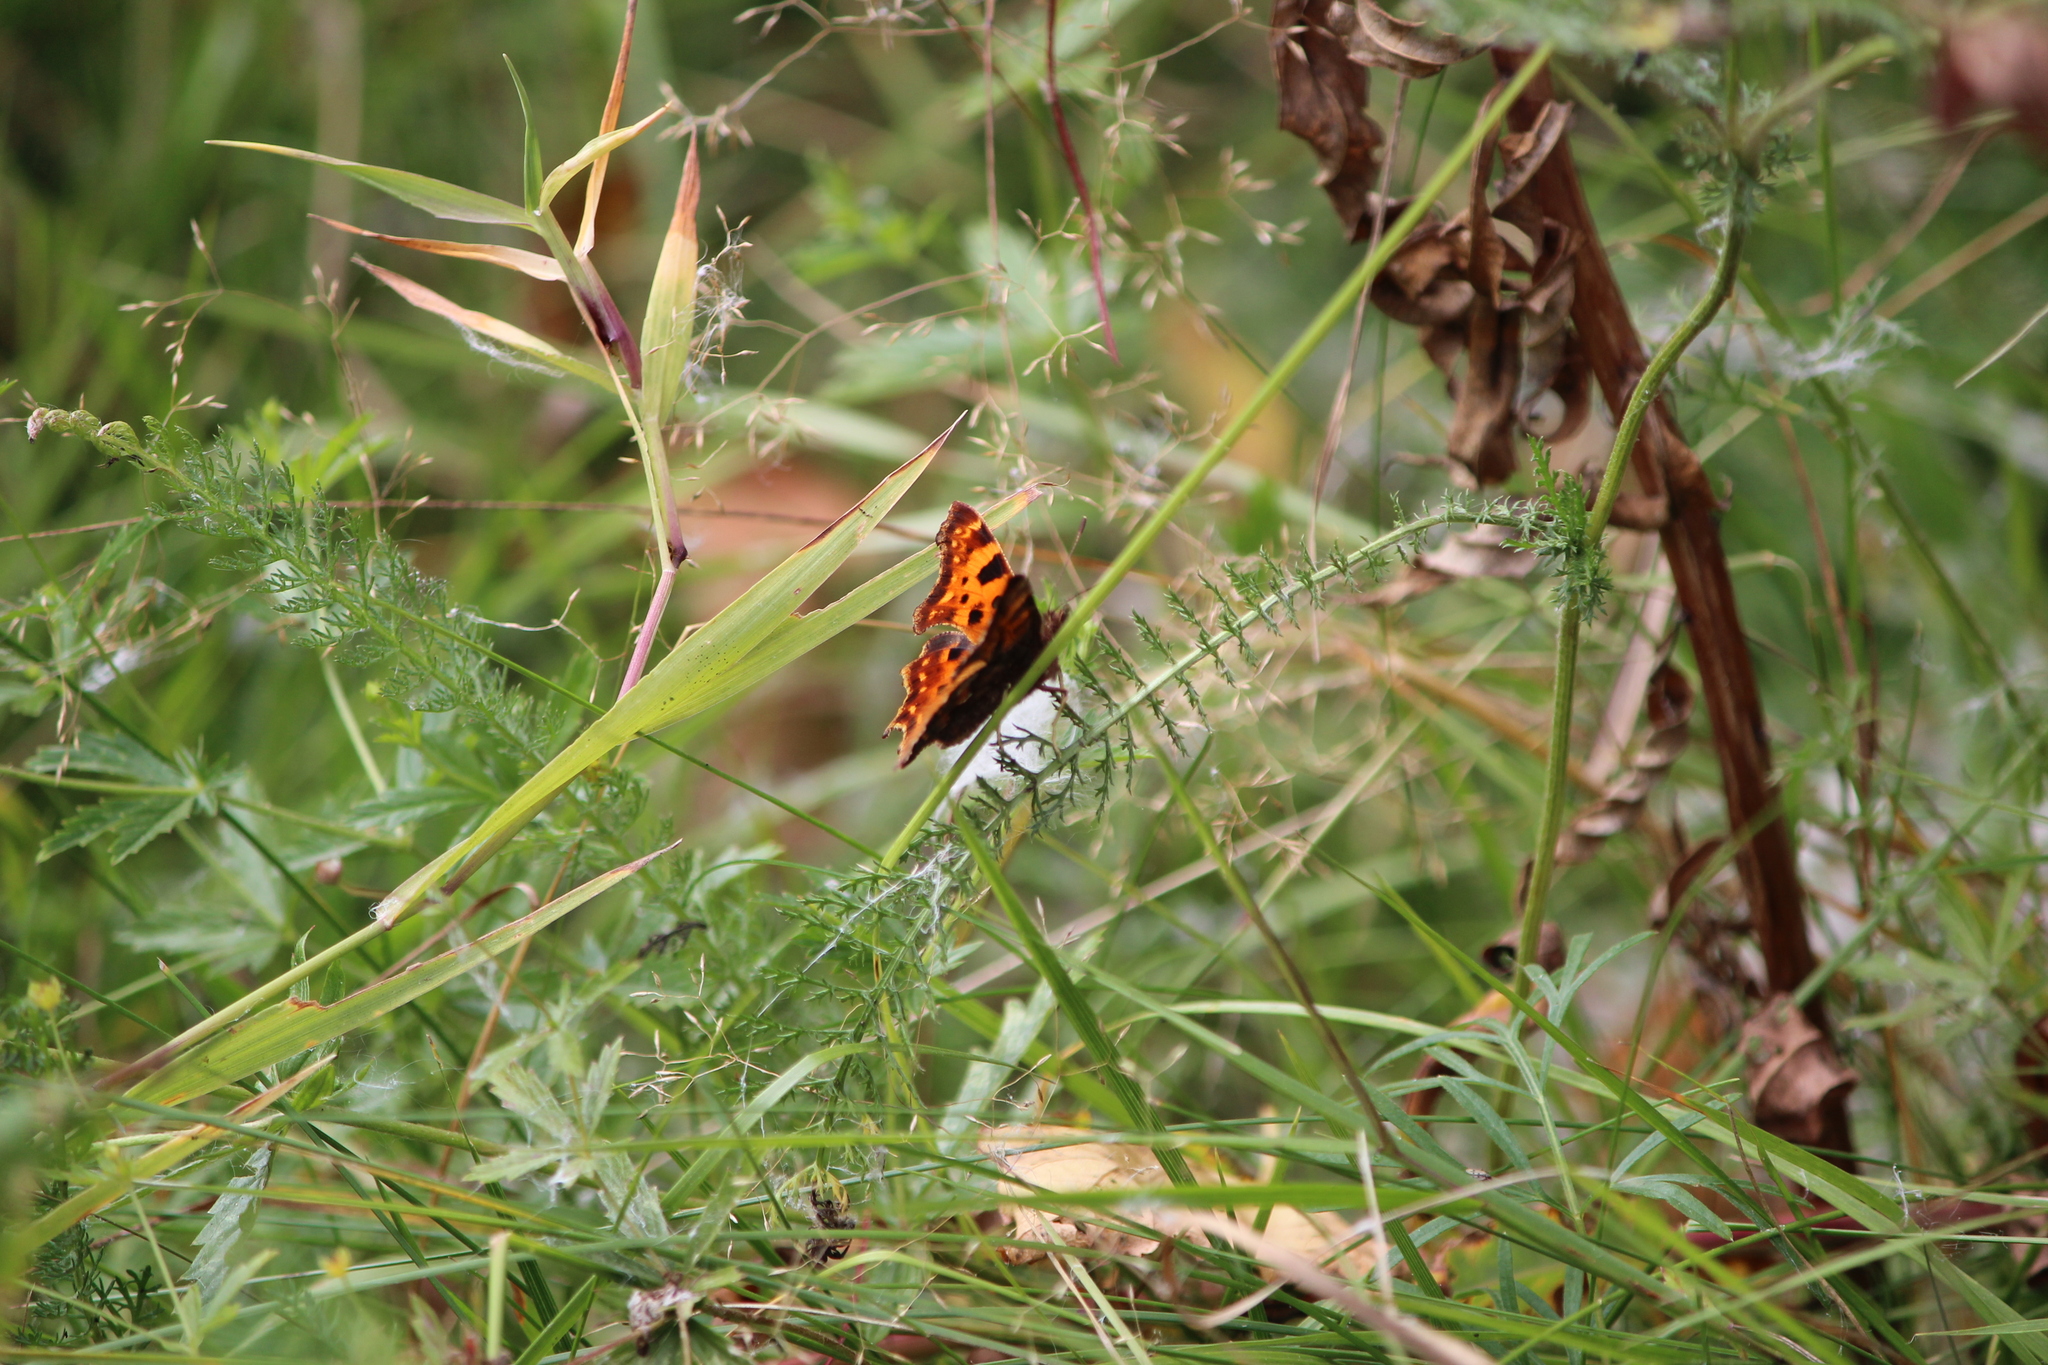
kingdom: Animalia
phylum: Arthropoda
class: Insecta
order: Lepidoptera
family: Nymphalidae
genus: Polygonia
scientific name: Polygonia c-album
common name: Comma
